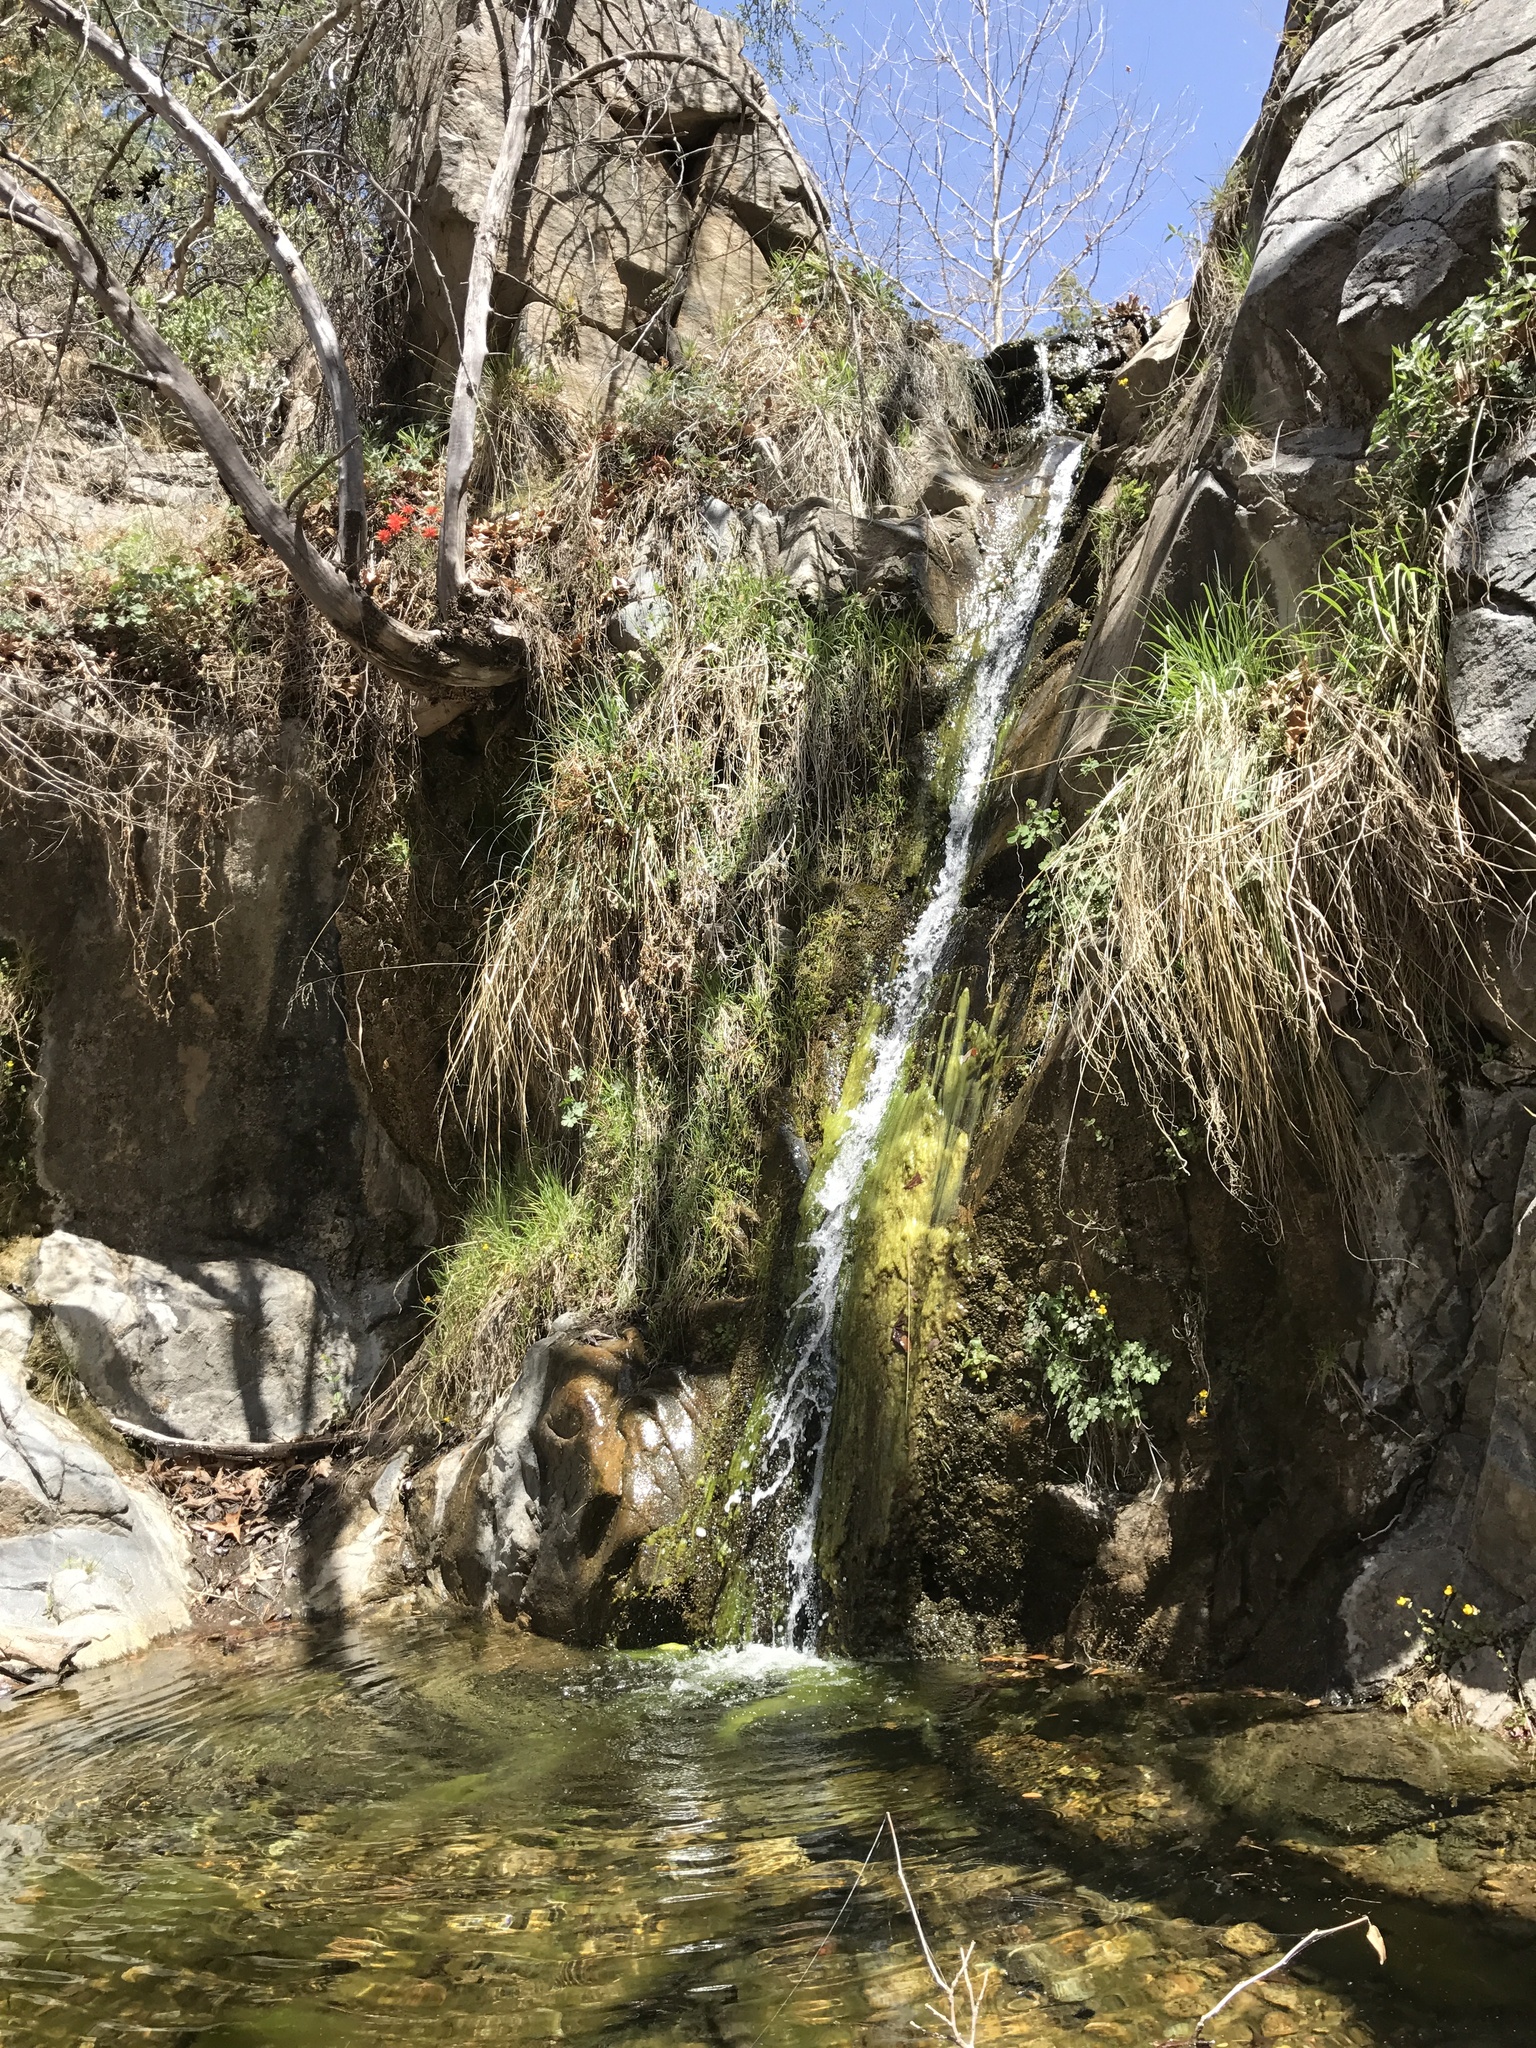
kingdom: Animalia
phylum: Arthropoda
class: Insecta
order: Lepidoptera
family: Nymphalidae
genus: Anaea
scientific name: Anaea aidea
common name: Tropical leafwing
